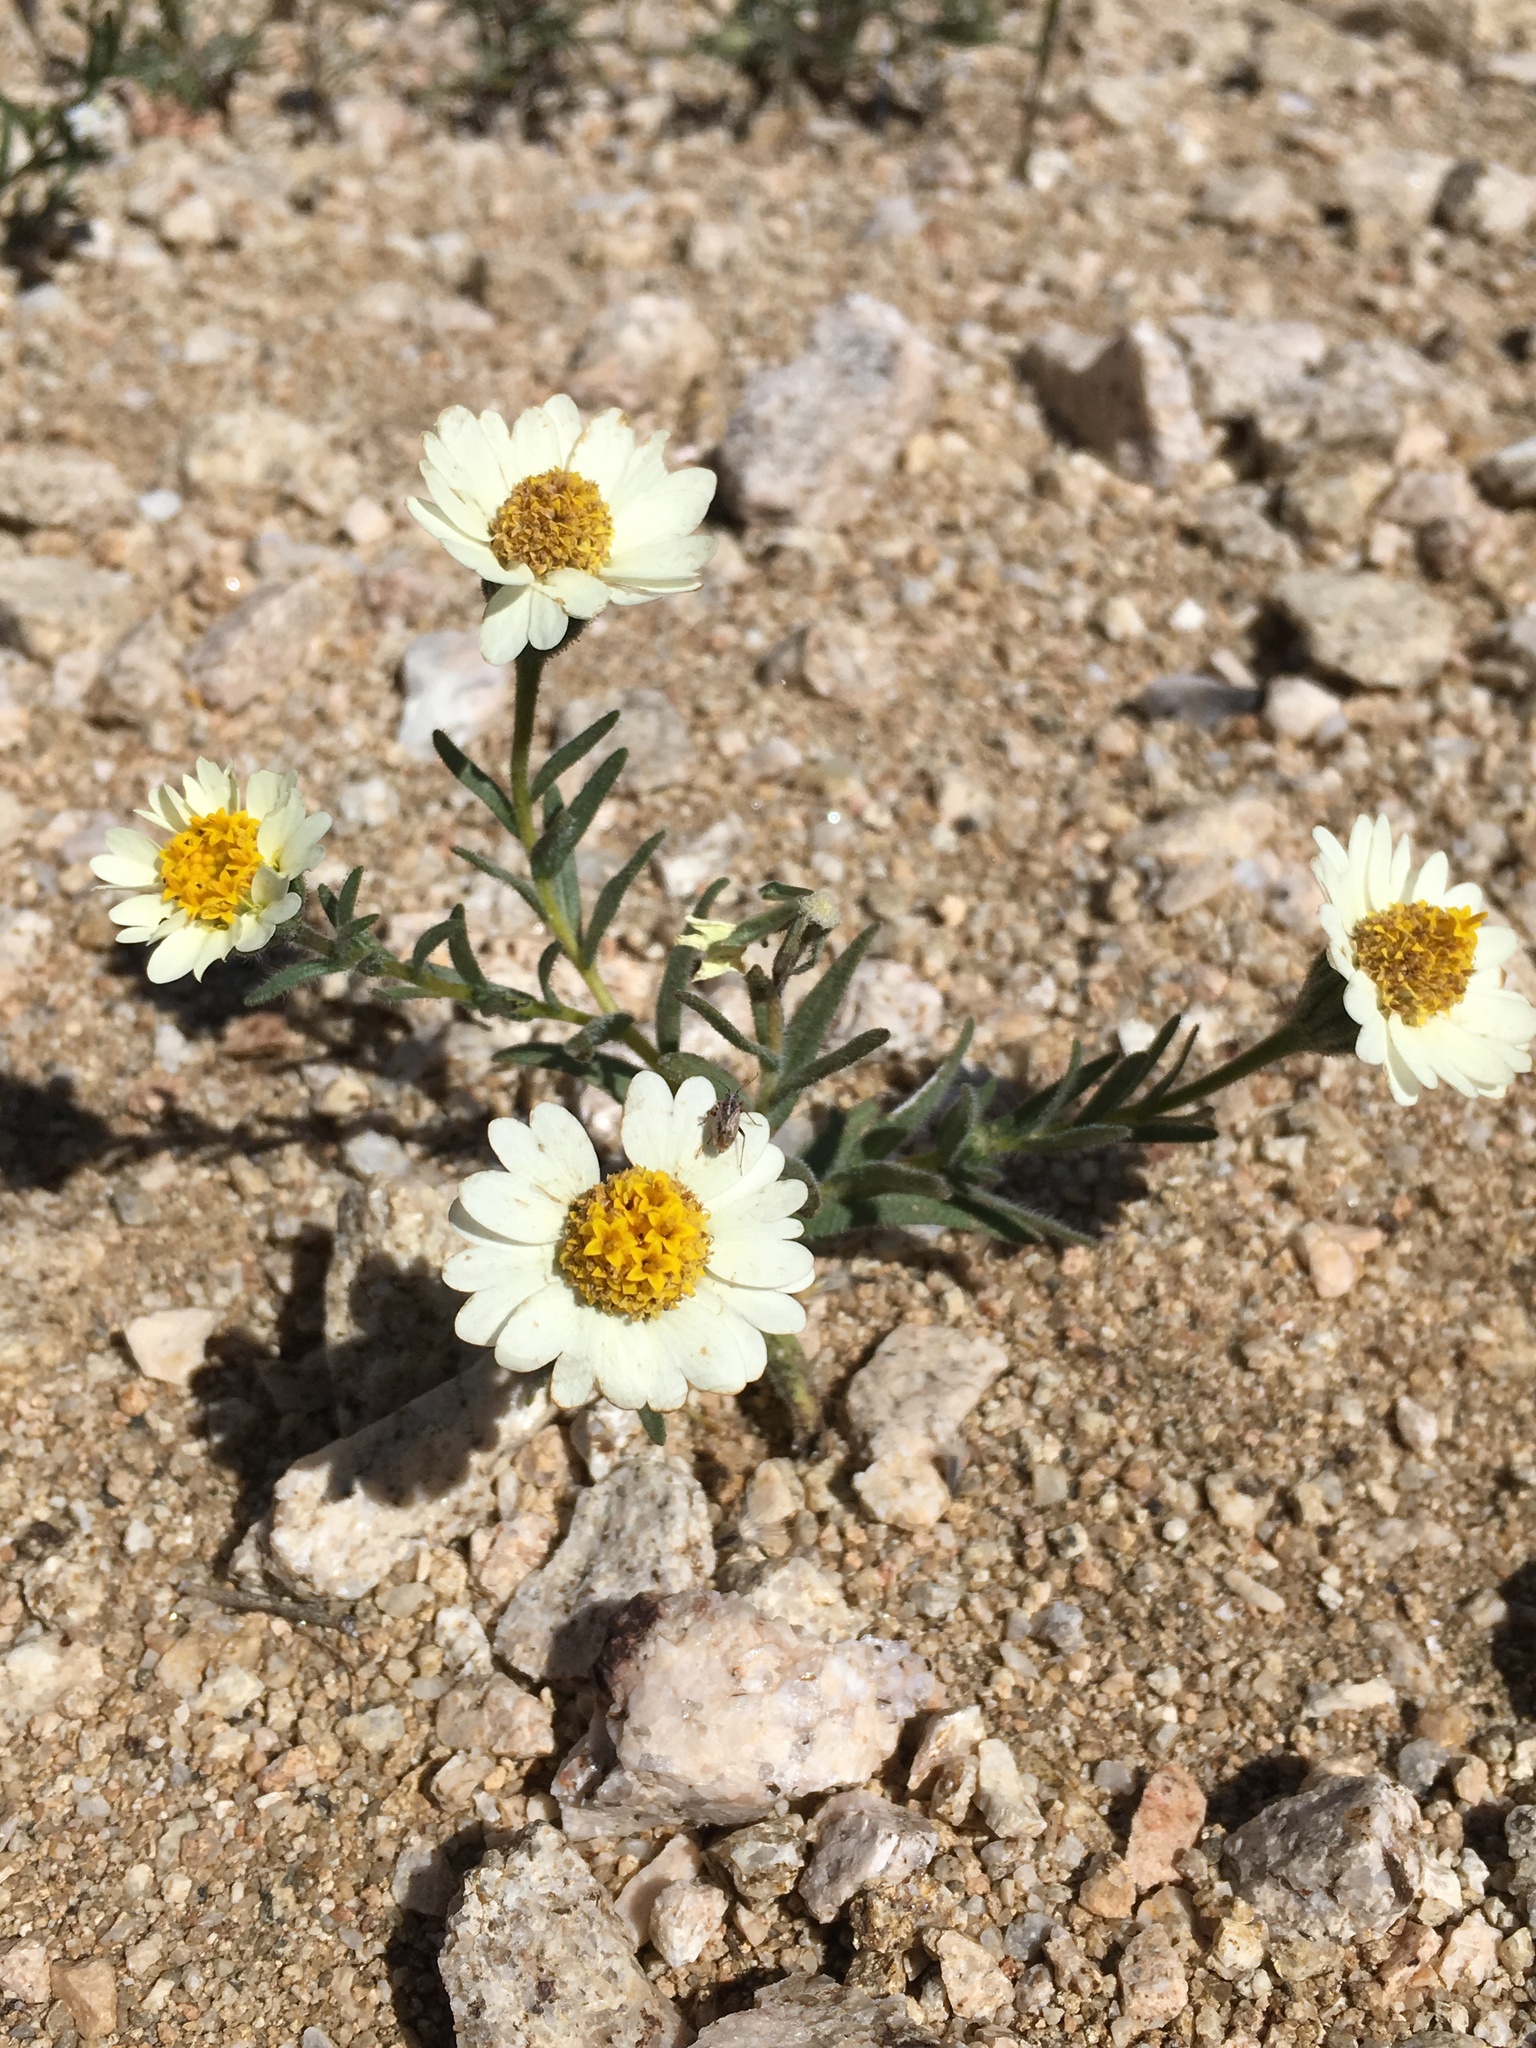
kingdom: Plantae
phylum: Tracheophyta
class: Magnoliopsida
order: Asterales
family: Asteraceae
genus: Layia
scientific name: Layia glandulosa
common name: White layia
